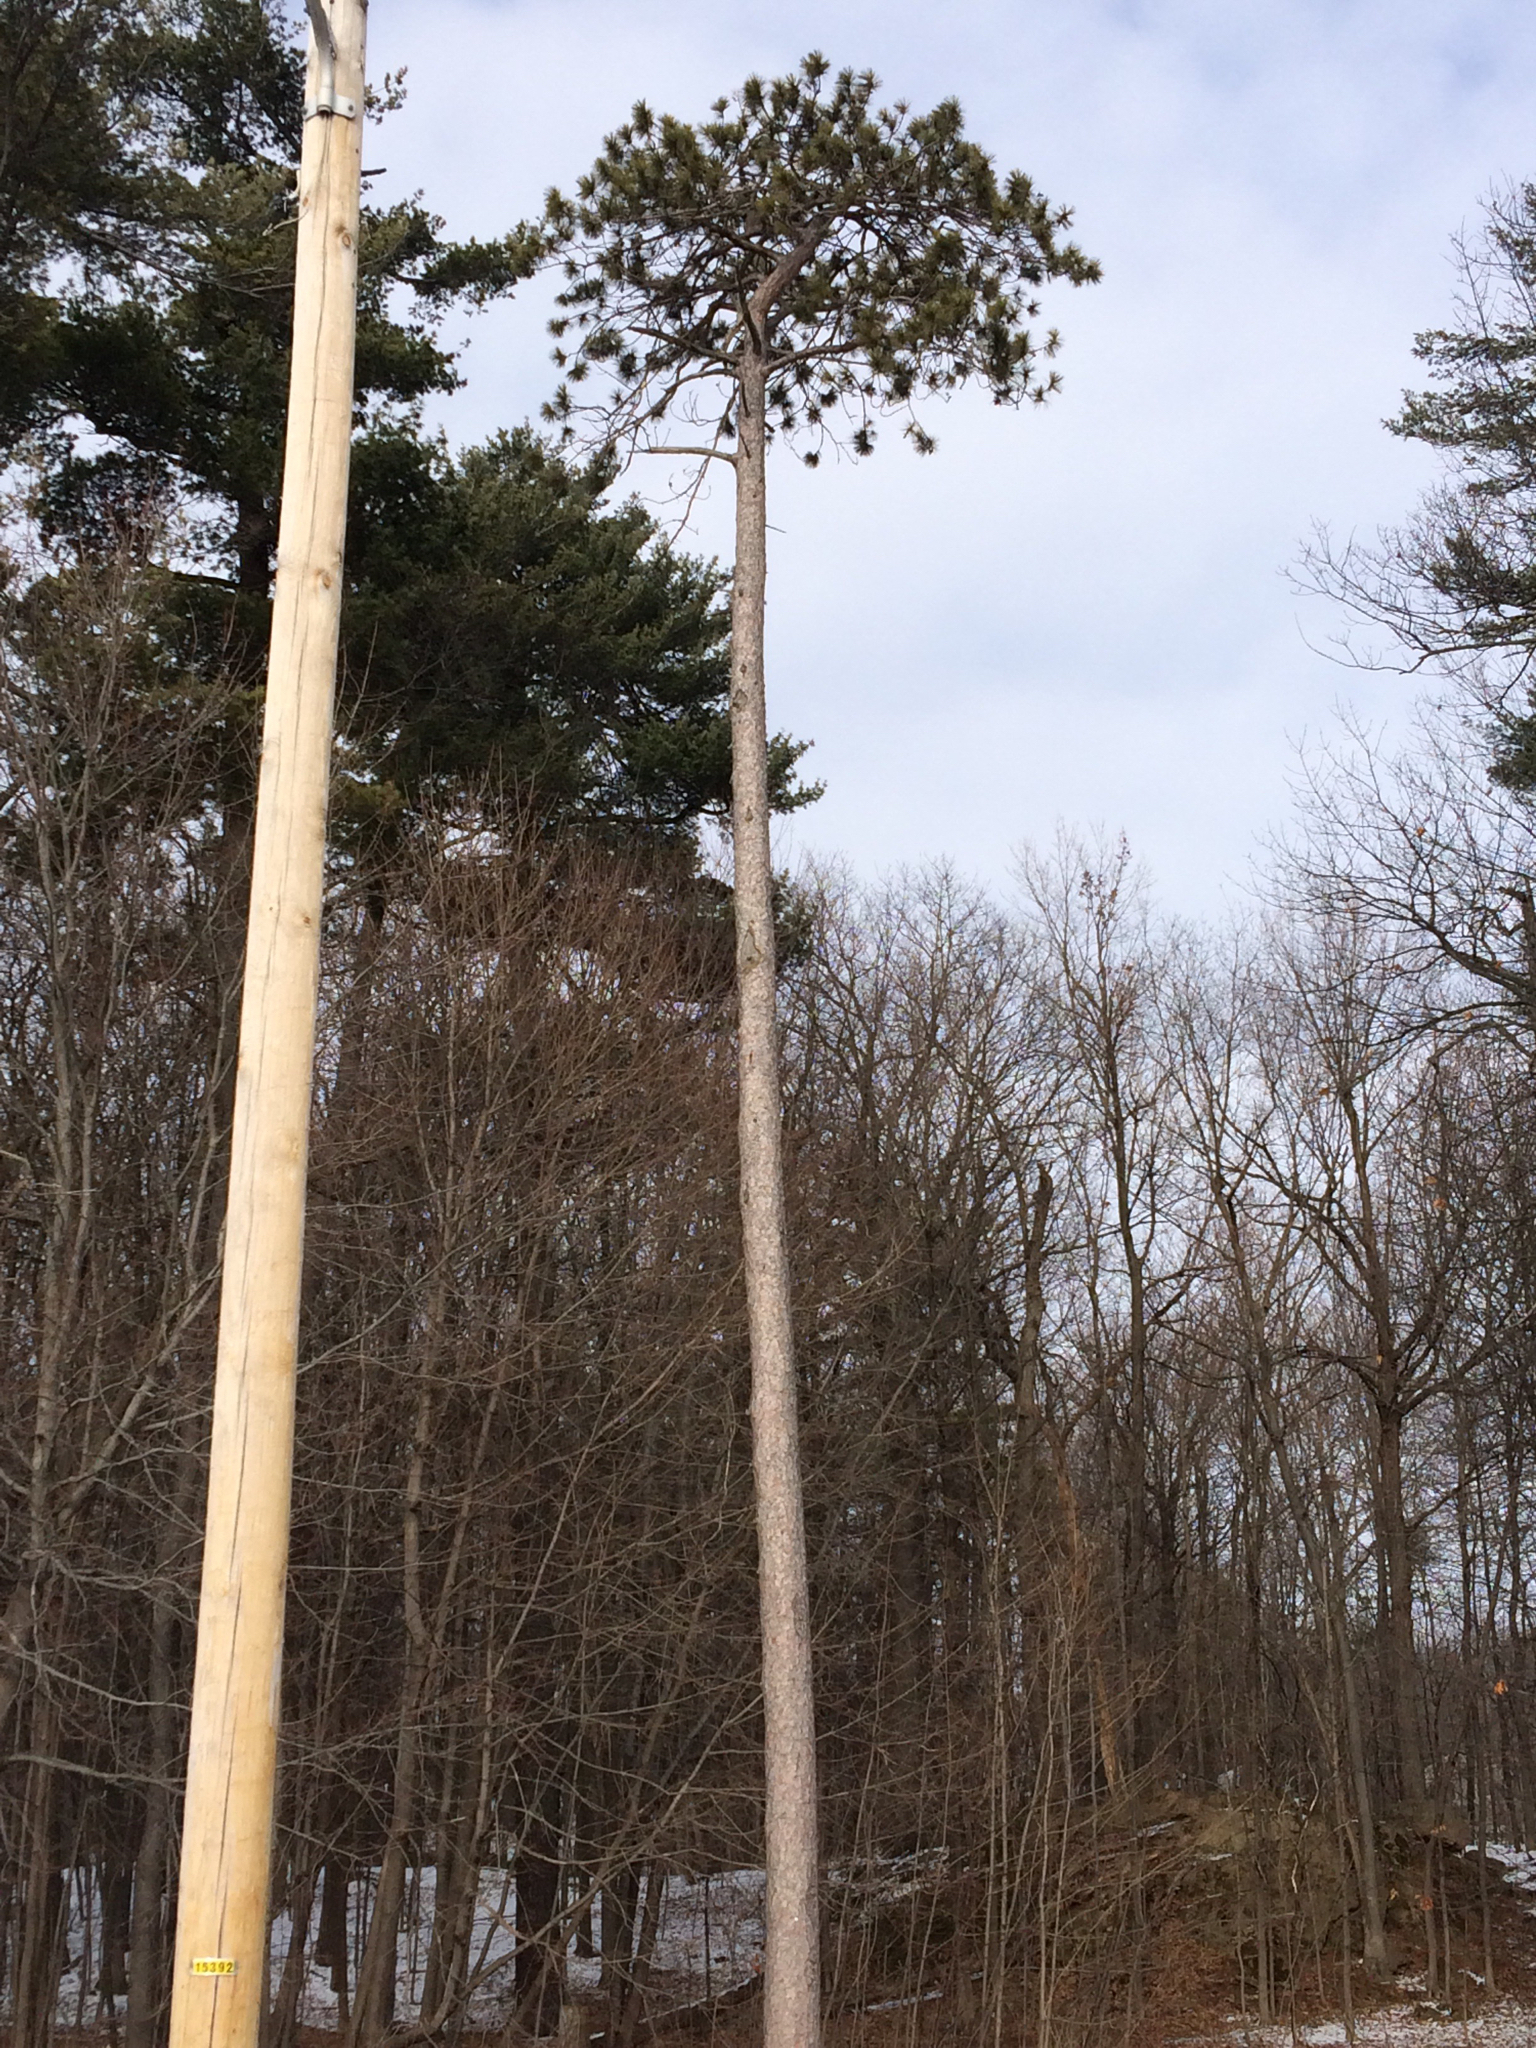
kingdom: Plantae
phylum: Tracheophyta
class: Pinopsida
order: Pinales
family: Pinaceae
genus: Pinus
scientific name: Pinus resinosa
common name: Norway pine
